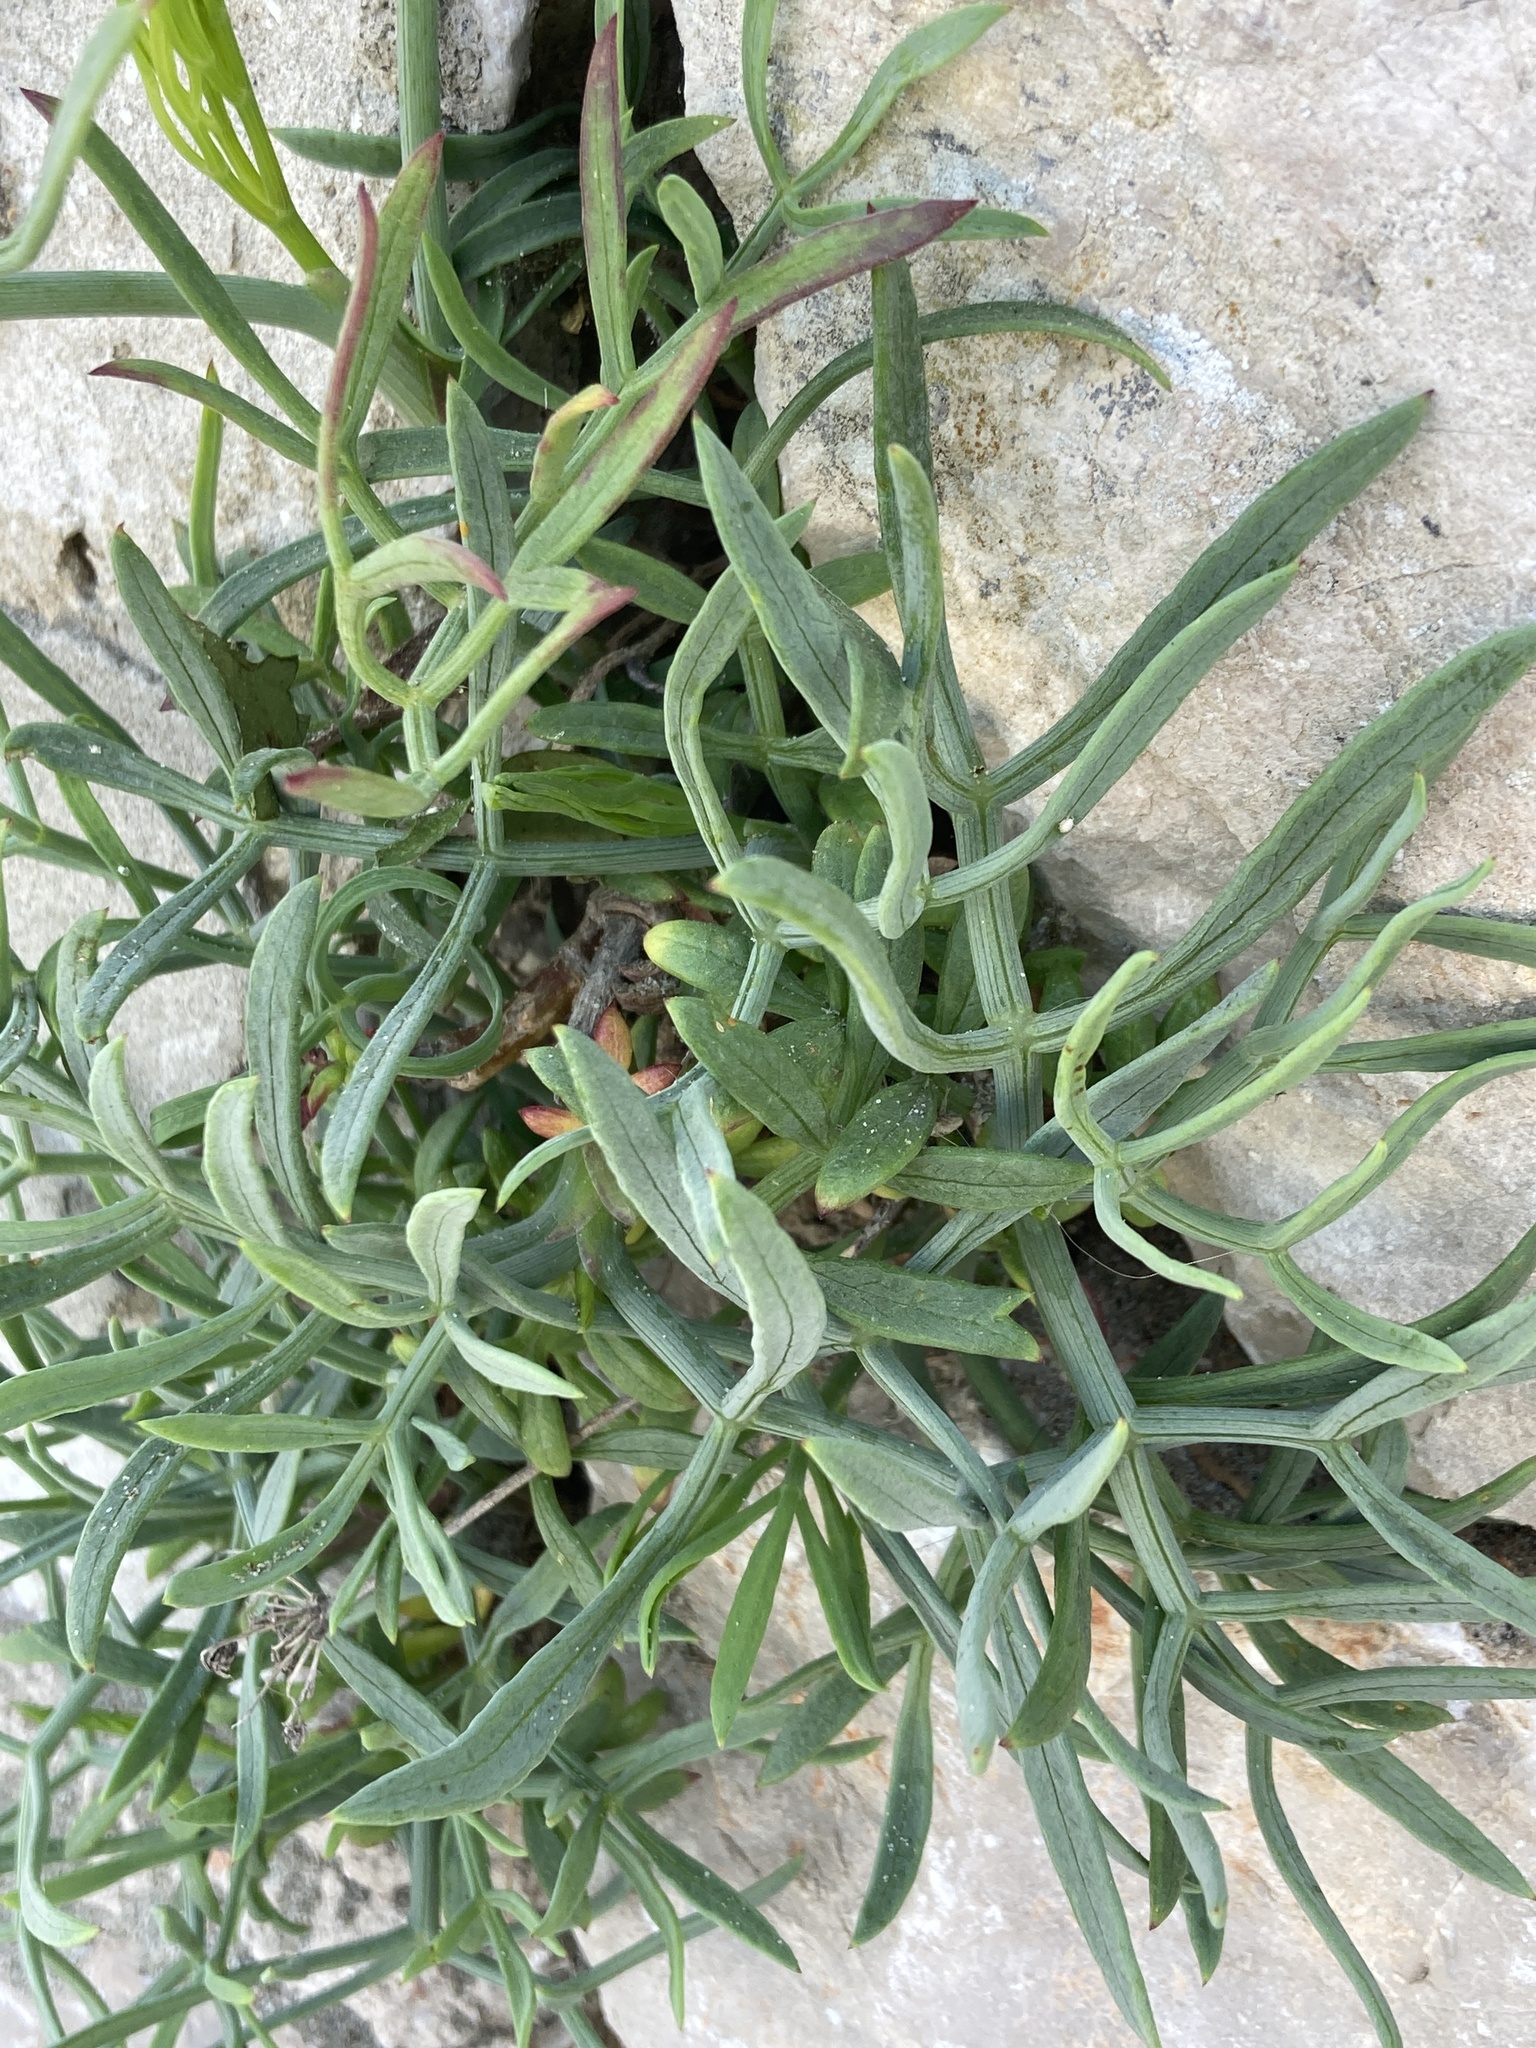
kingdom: Plantae
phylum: Tracheophyta
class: Magnoliopsida
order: Apiales
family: Apiaceae
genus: Crithmum
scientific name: Crithmum maritimum
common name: Rock samphire
